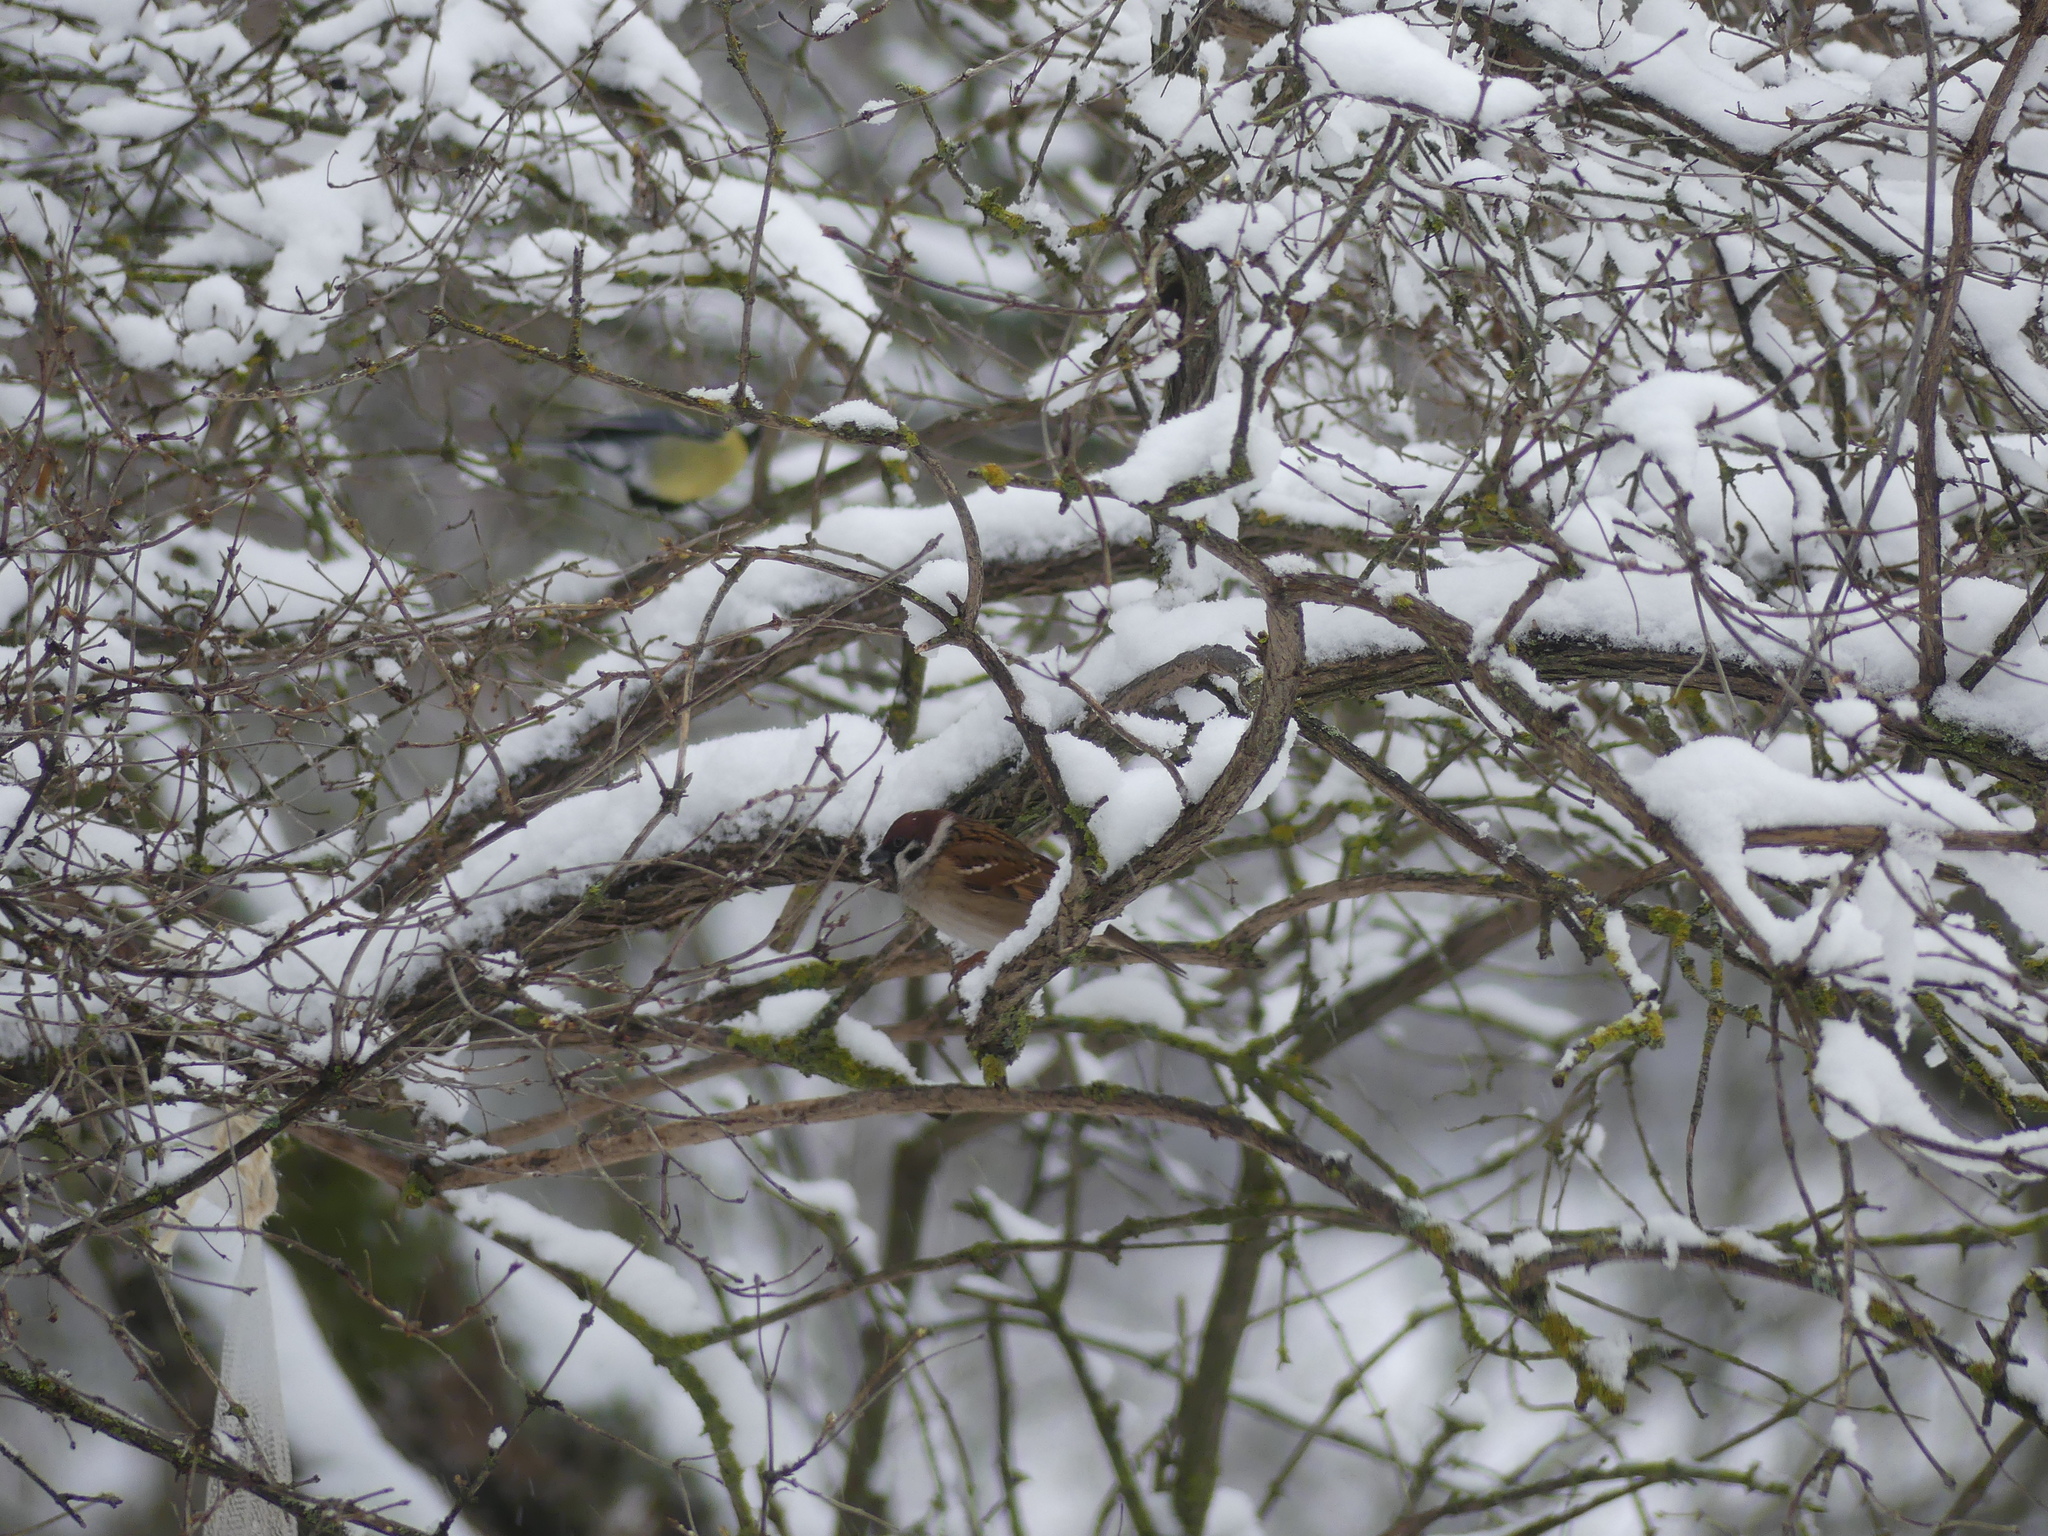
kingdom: Animalia
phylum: Chordata
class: Aves
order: Passeriformes
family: Passeridae
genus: Passer
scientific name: Passer montanus
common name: Eurasian tree sparrow
